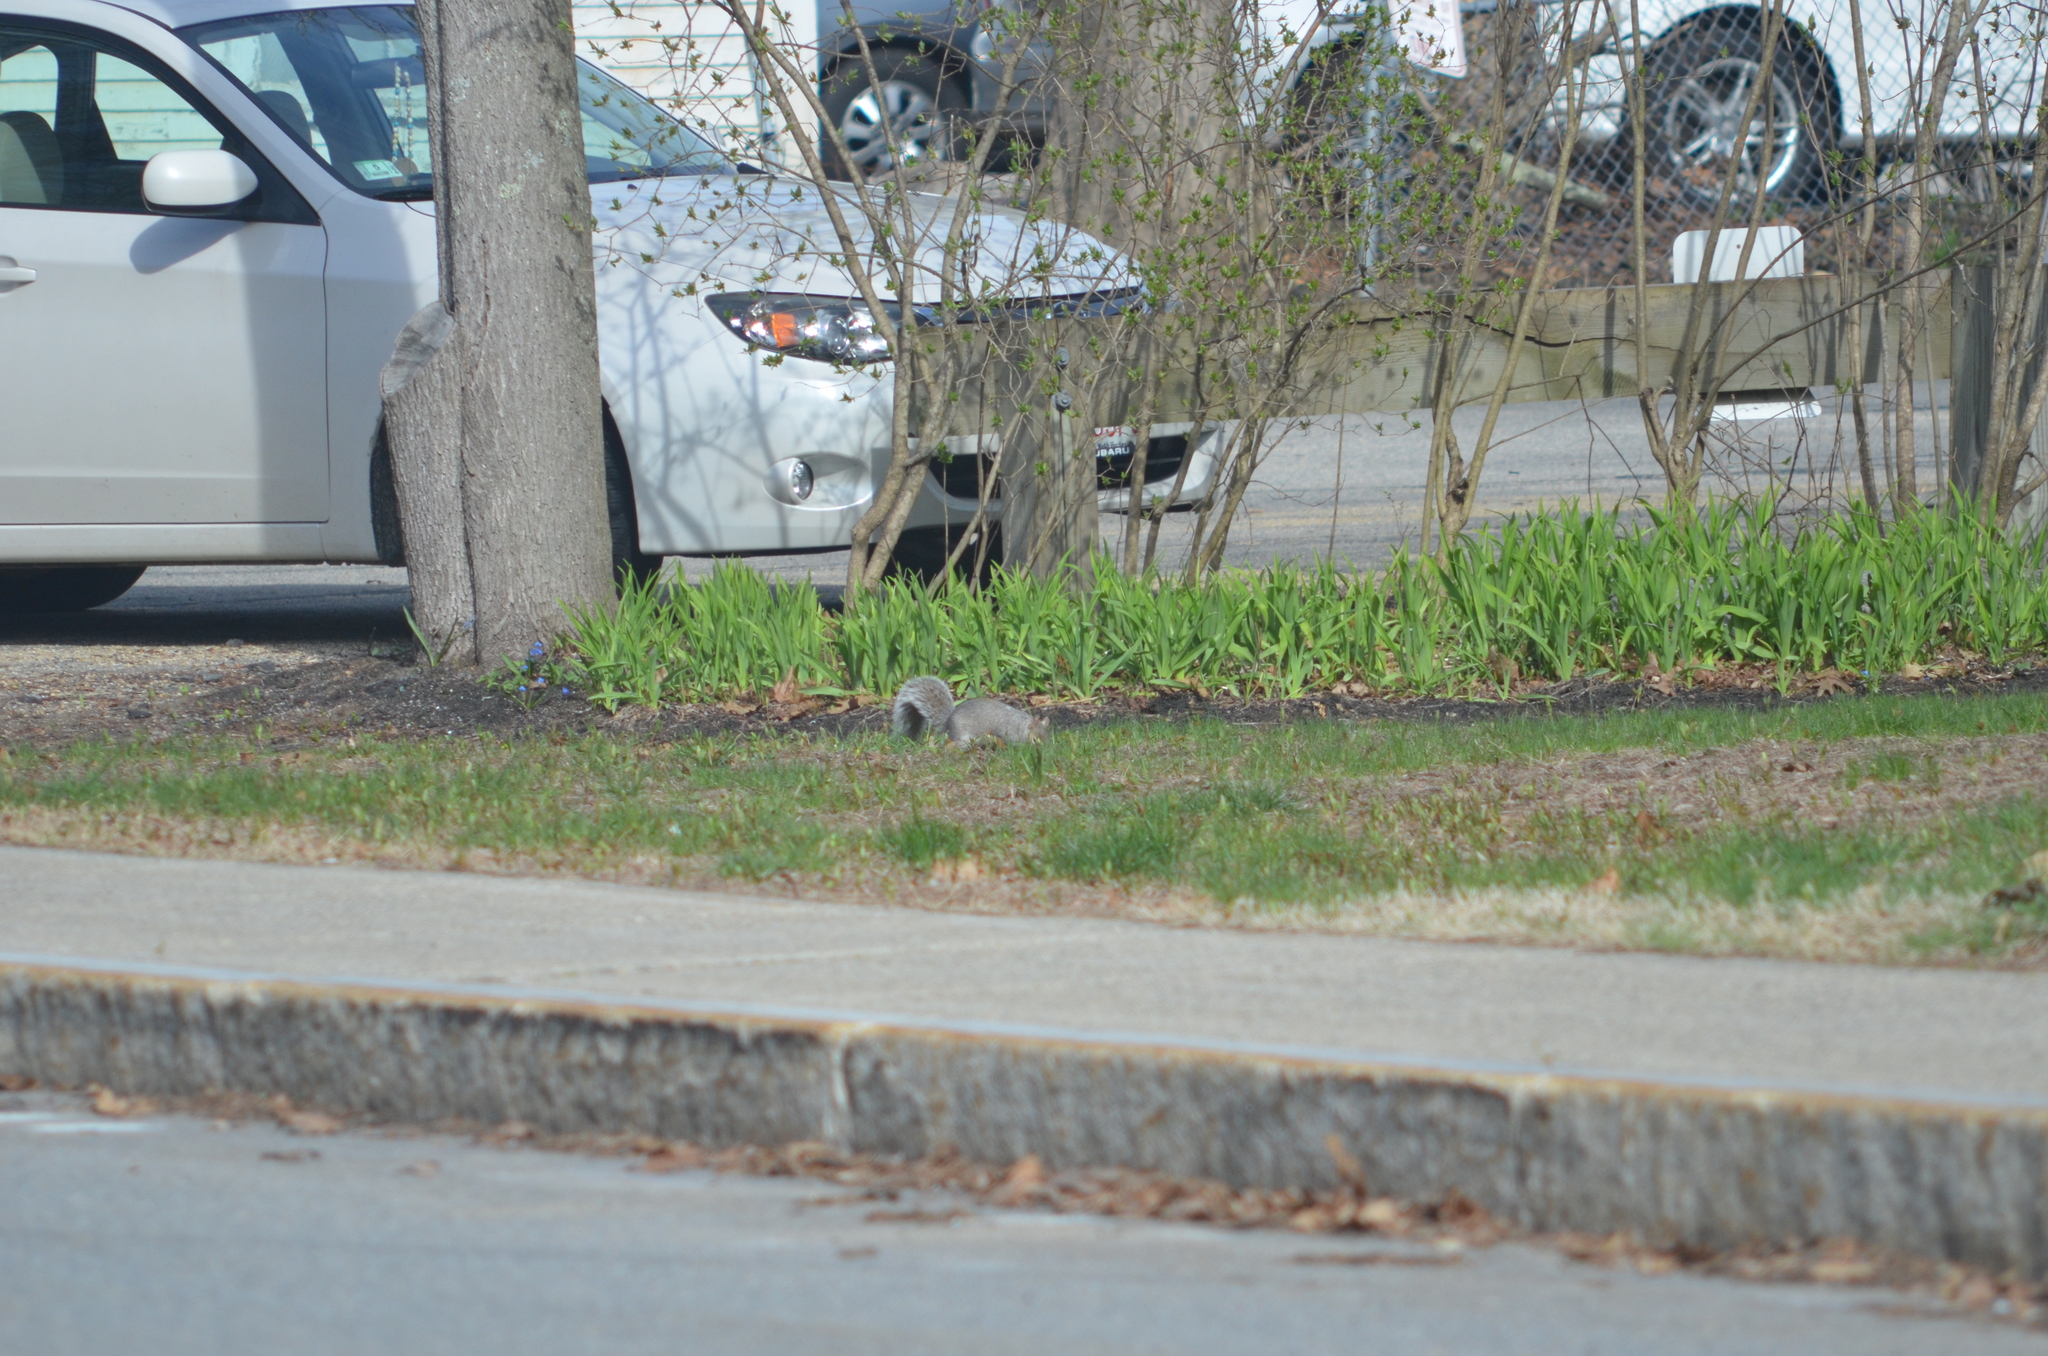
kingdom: Animalia
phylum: Chordata
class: Mammalia
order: Rodentia
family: Sciuridae
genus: Sciurus
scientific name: Sciurus carolinensis
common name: Eastern gray squirrel
